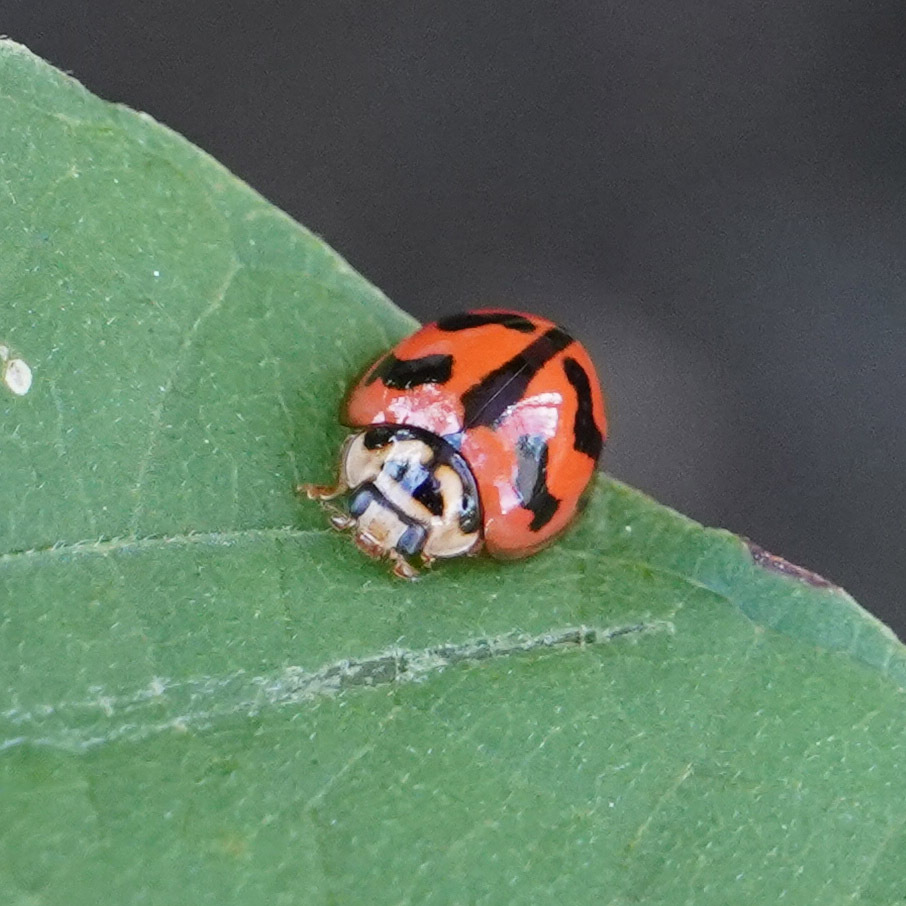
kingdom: Animalia
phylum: Arthropoda
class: Insecta
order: Coleoptera
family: Coccinellidae
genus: Cheilomenes
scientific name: Cheilomenes sexmaculata
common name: Ladybird beetle
